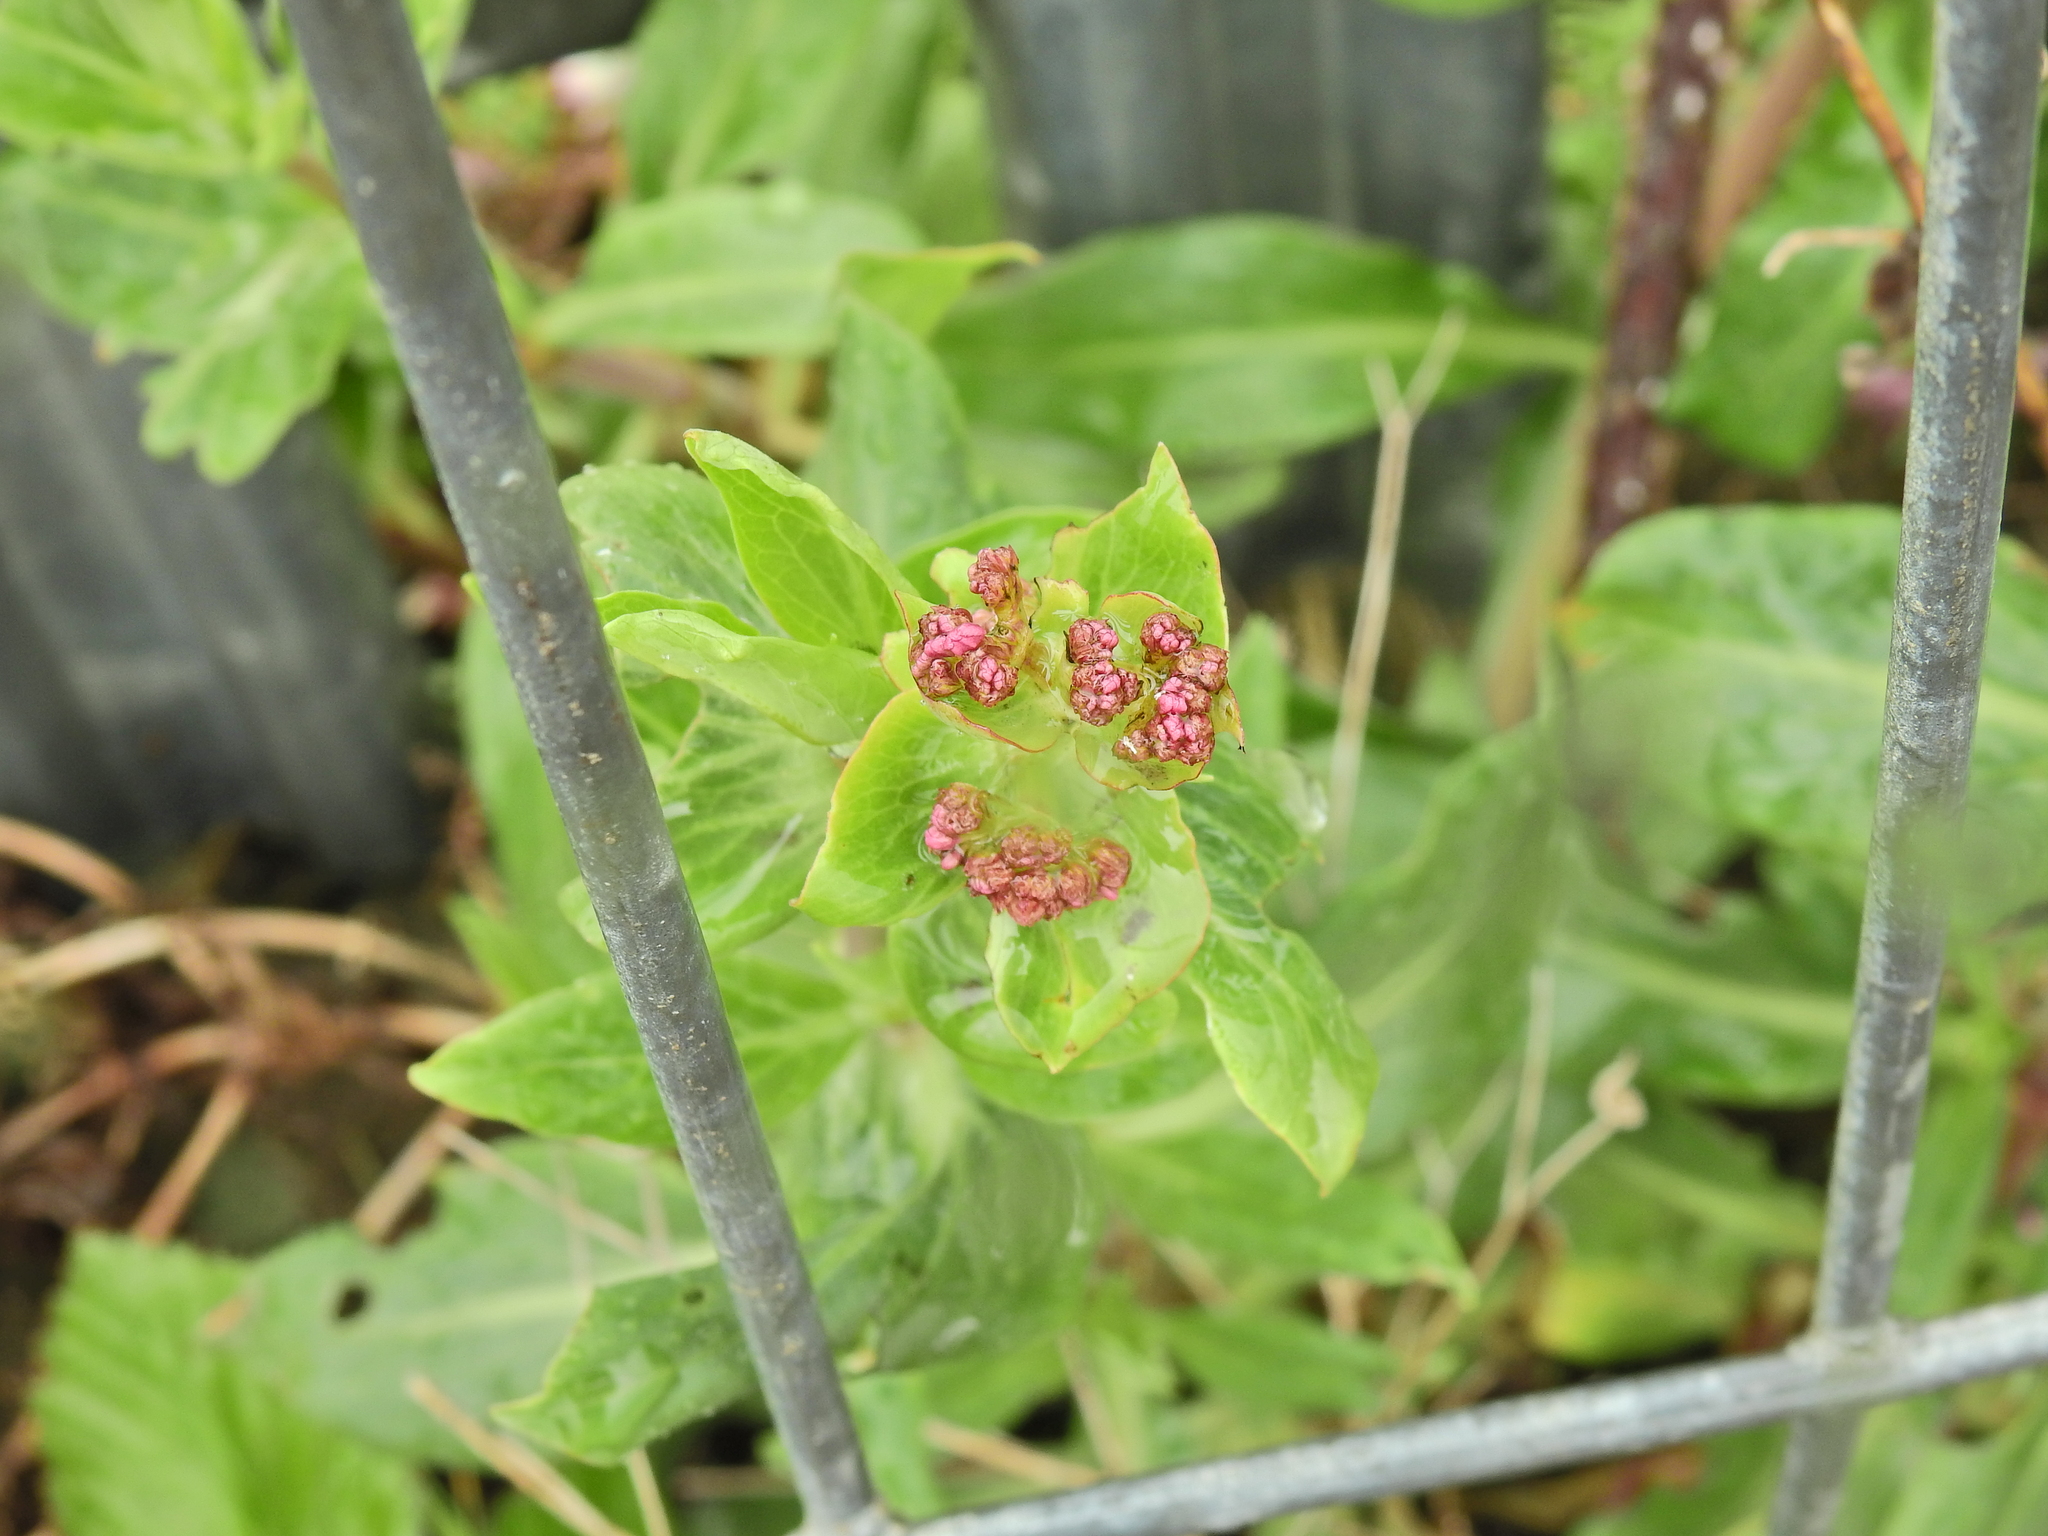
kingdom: Plantae
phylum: Tracheophyta
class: Magnoliopsida
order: Dipsacales
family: Caprifoliaceae
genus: Centranthus
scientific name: Centranthus ruber
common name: Red valerian
